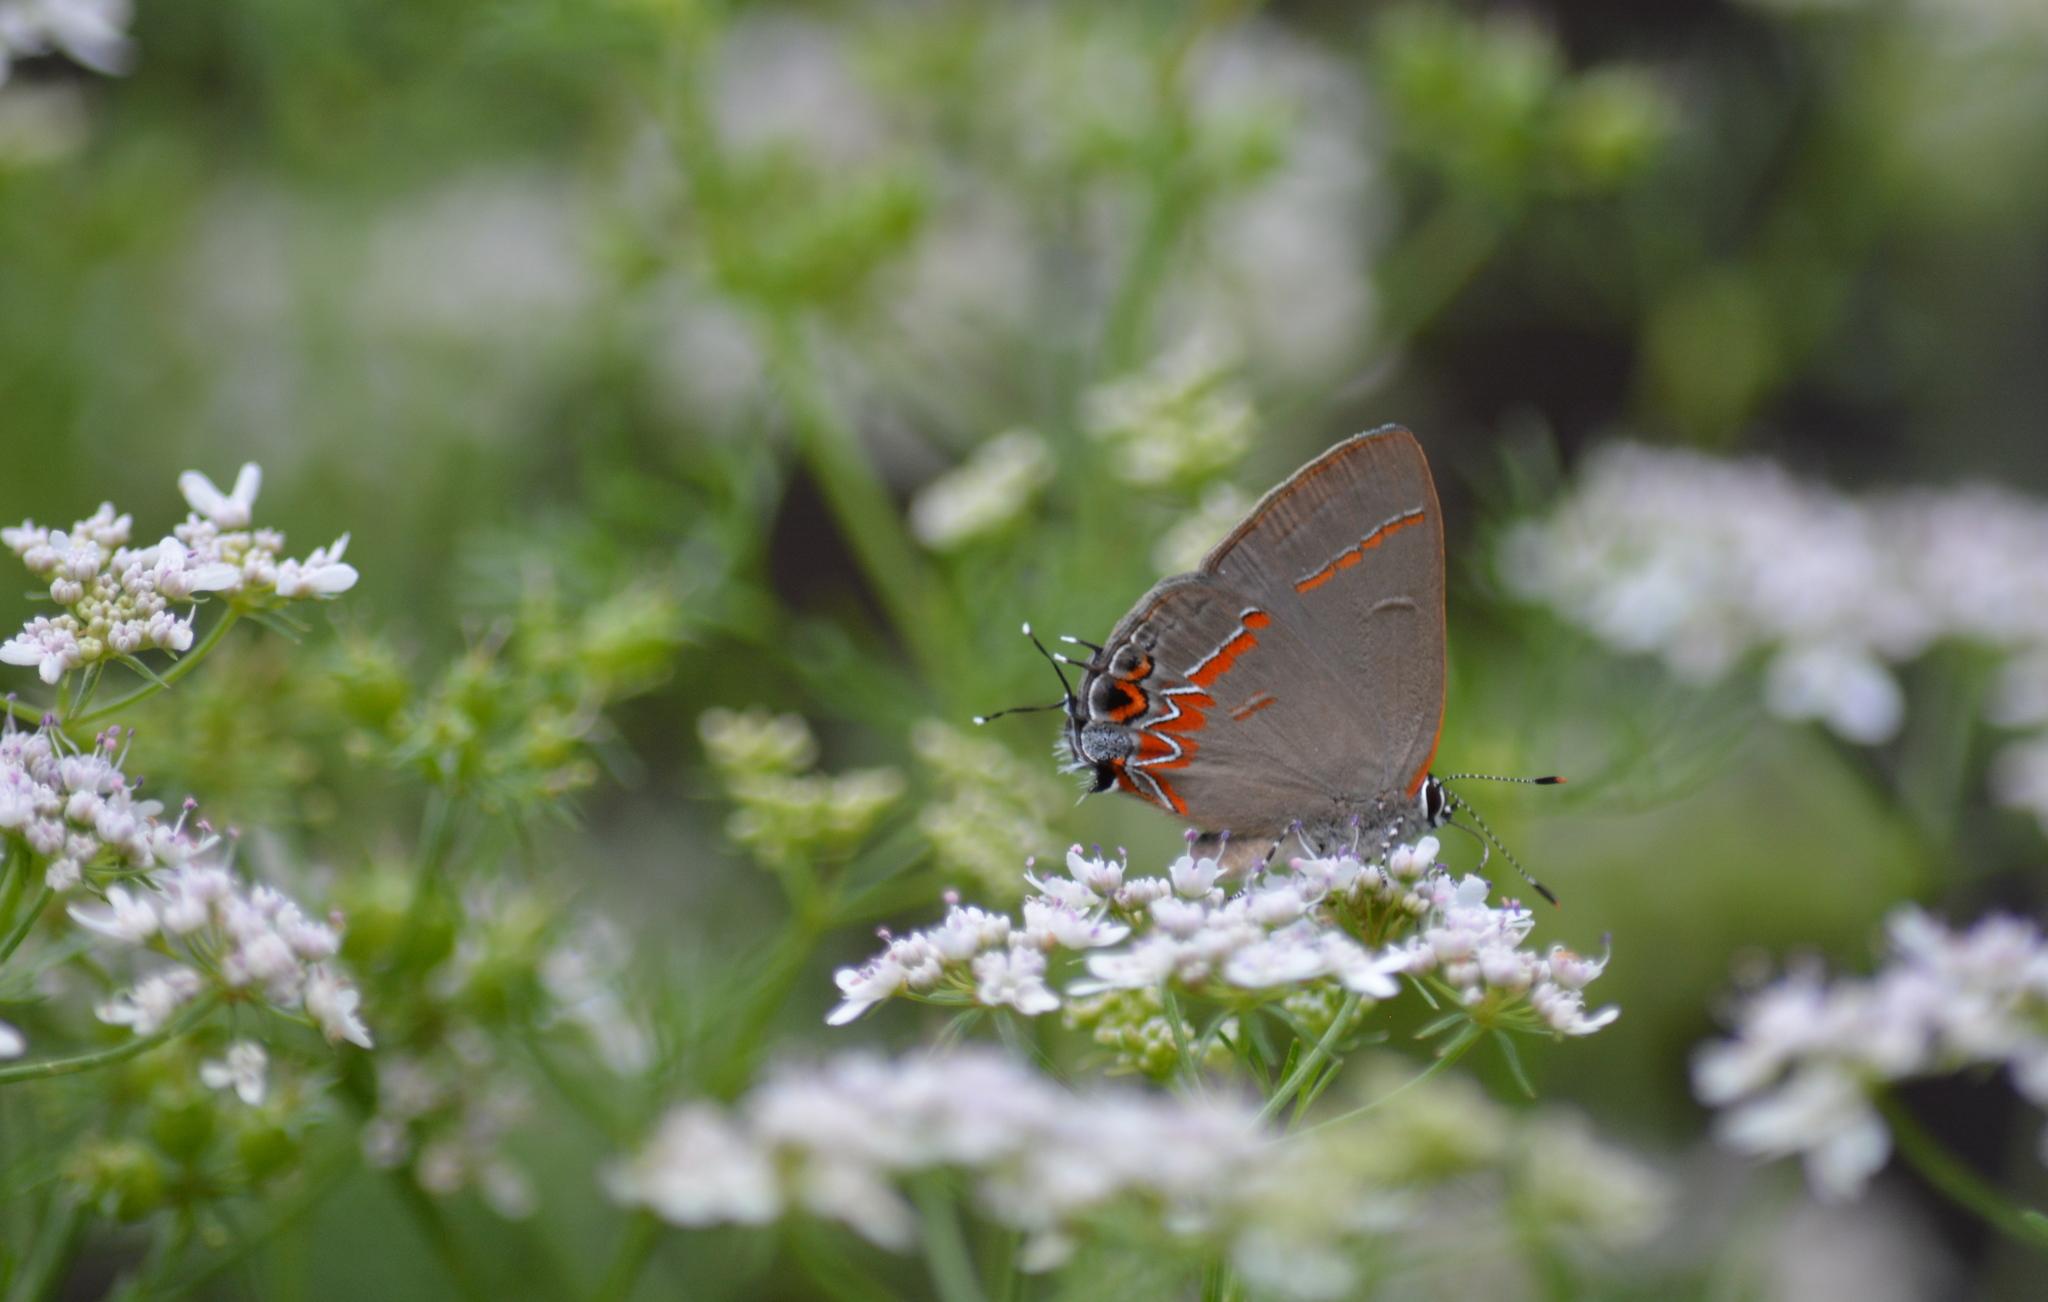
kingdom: Animalia
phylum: Arthropoda
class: Insecta
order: Lepidoptera
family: Lycaenidae
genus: Calycopis
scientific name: Calycopis cecrops
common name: Red-banded hairstreak
